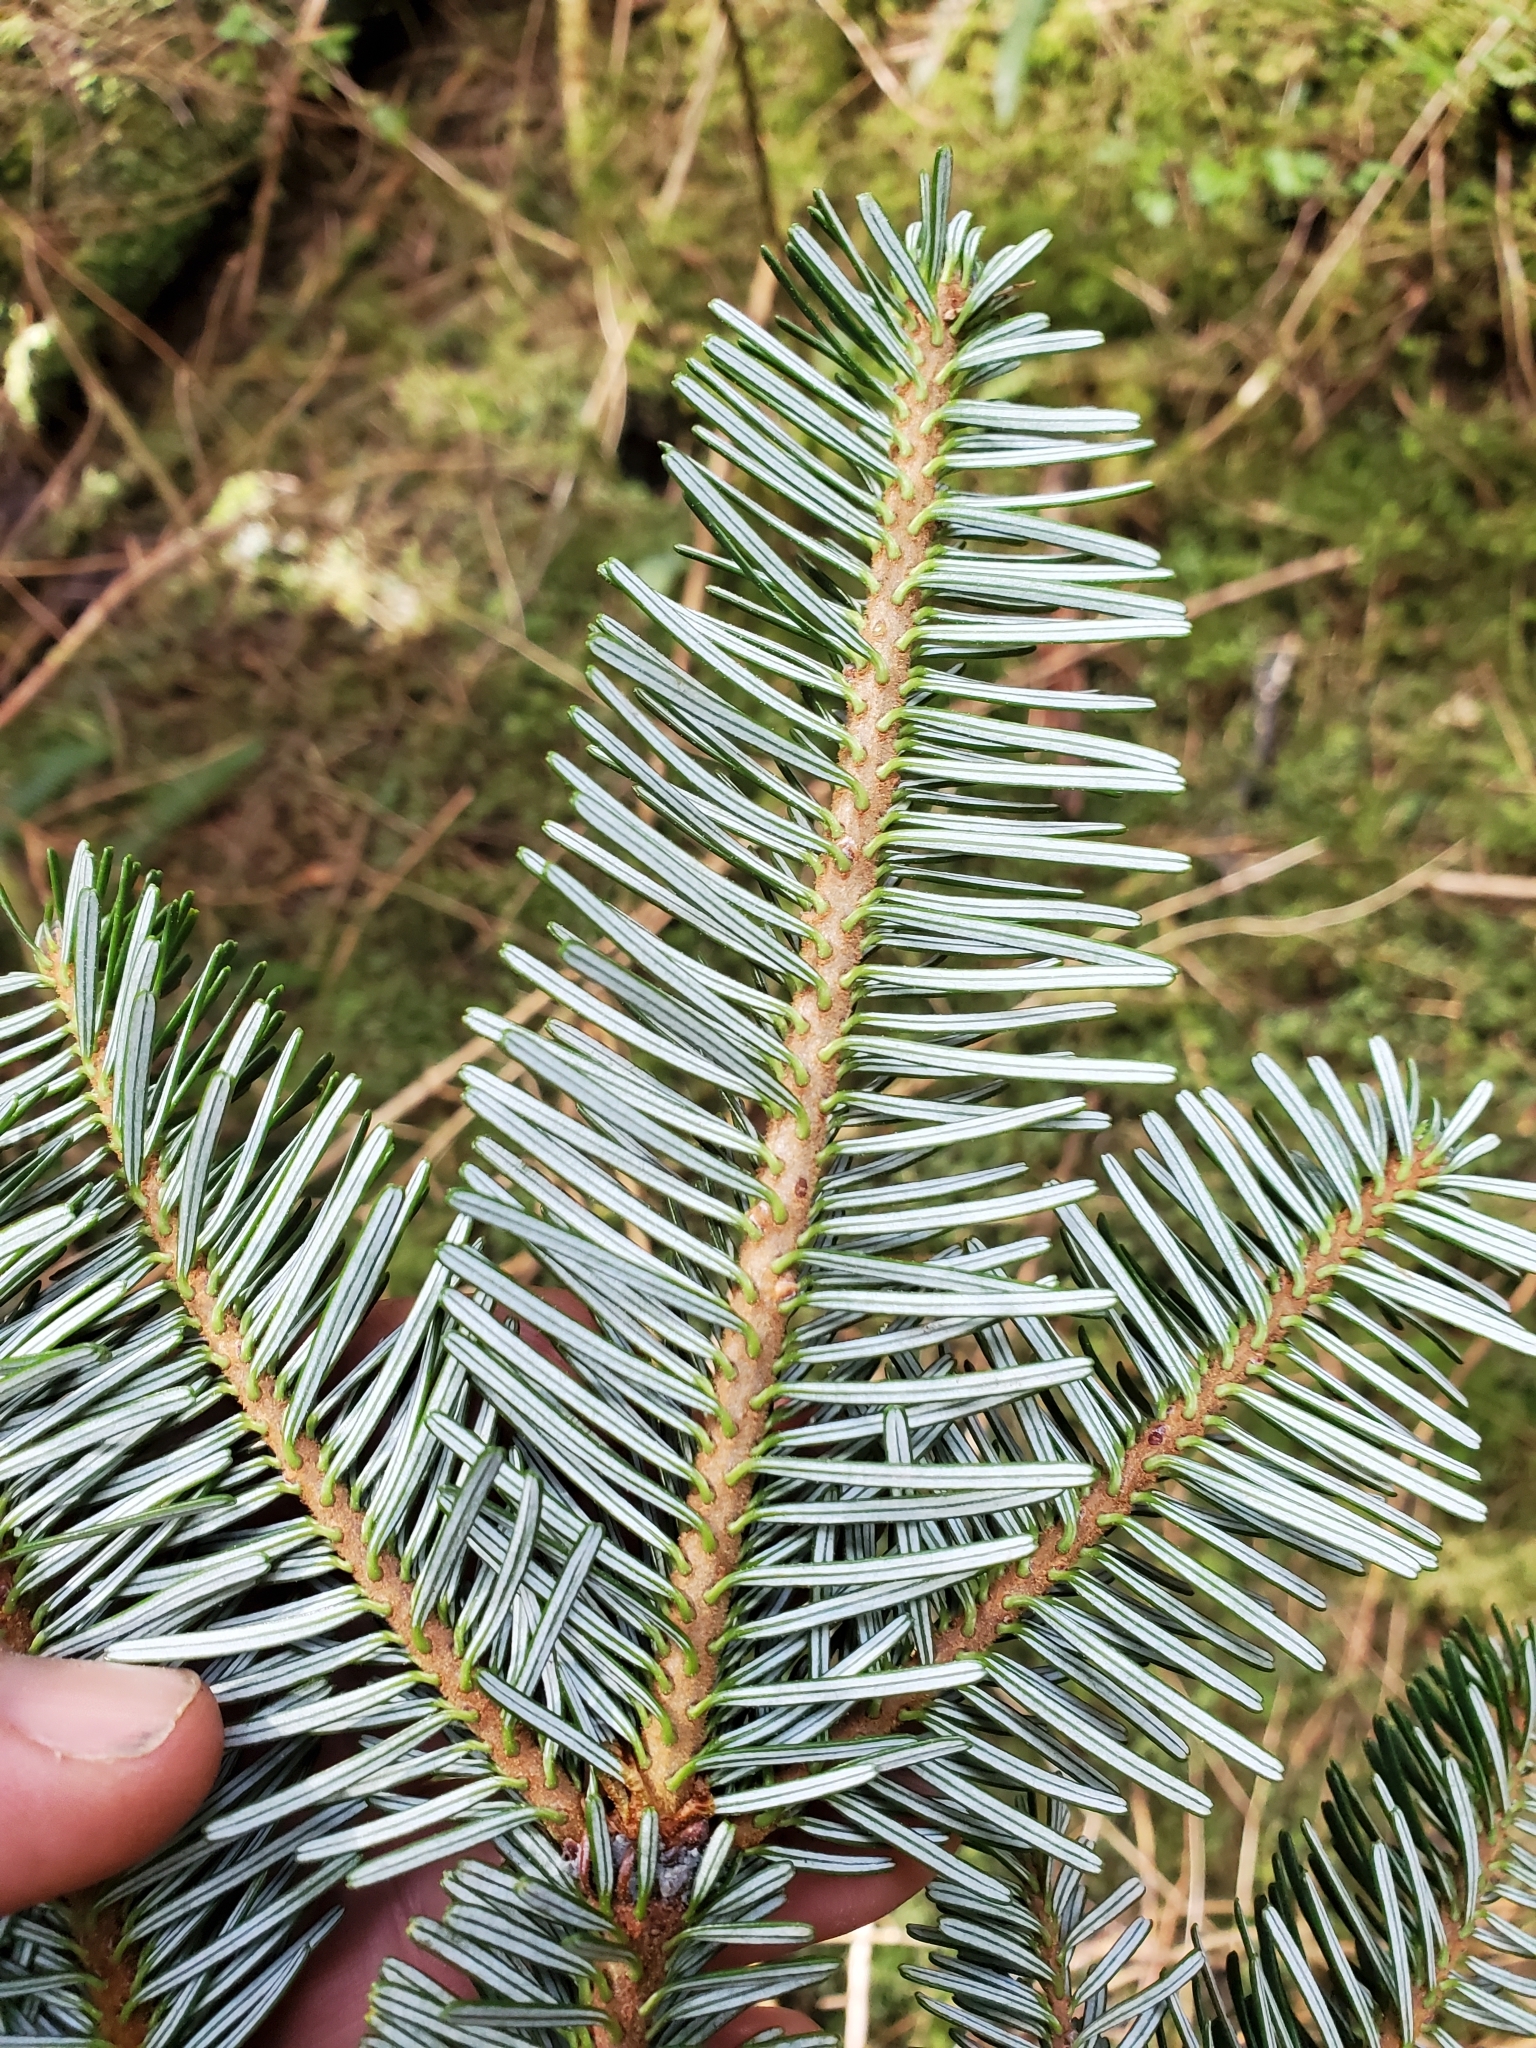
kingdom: Plantae
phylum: Tracheophyta
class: Pinopsida
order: Pinales
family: Pinaceae
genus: Abies
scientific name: Abies amabilis
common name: Pacific silver fir
